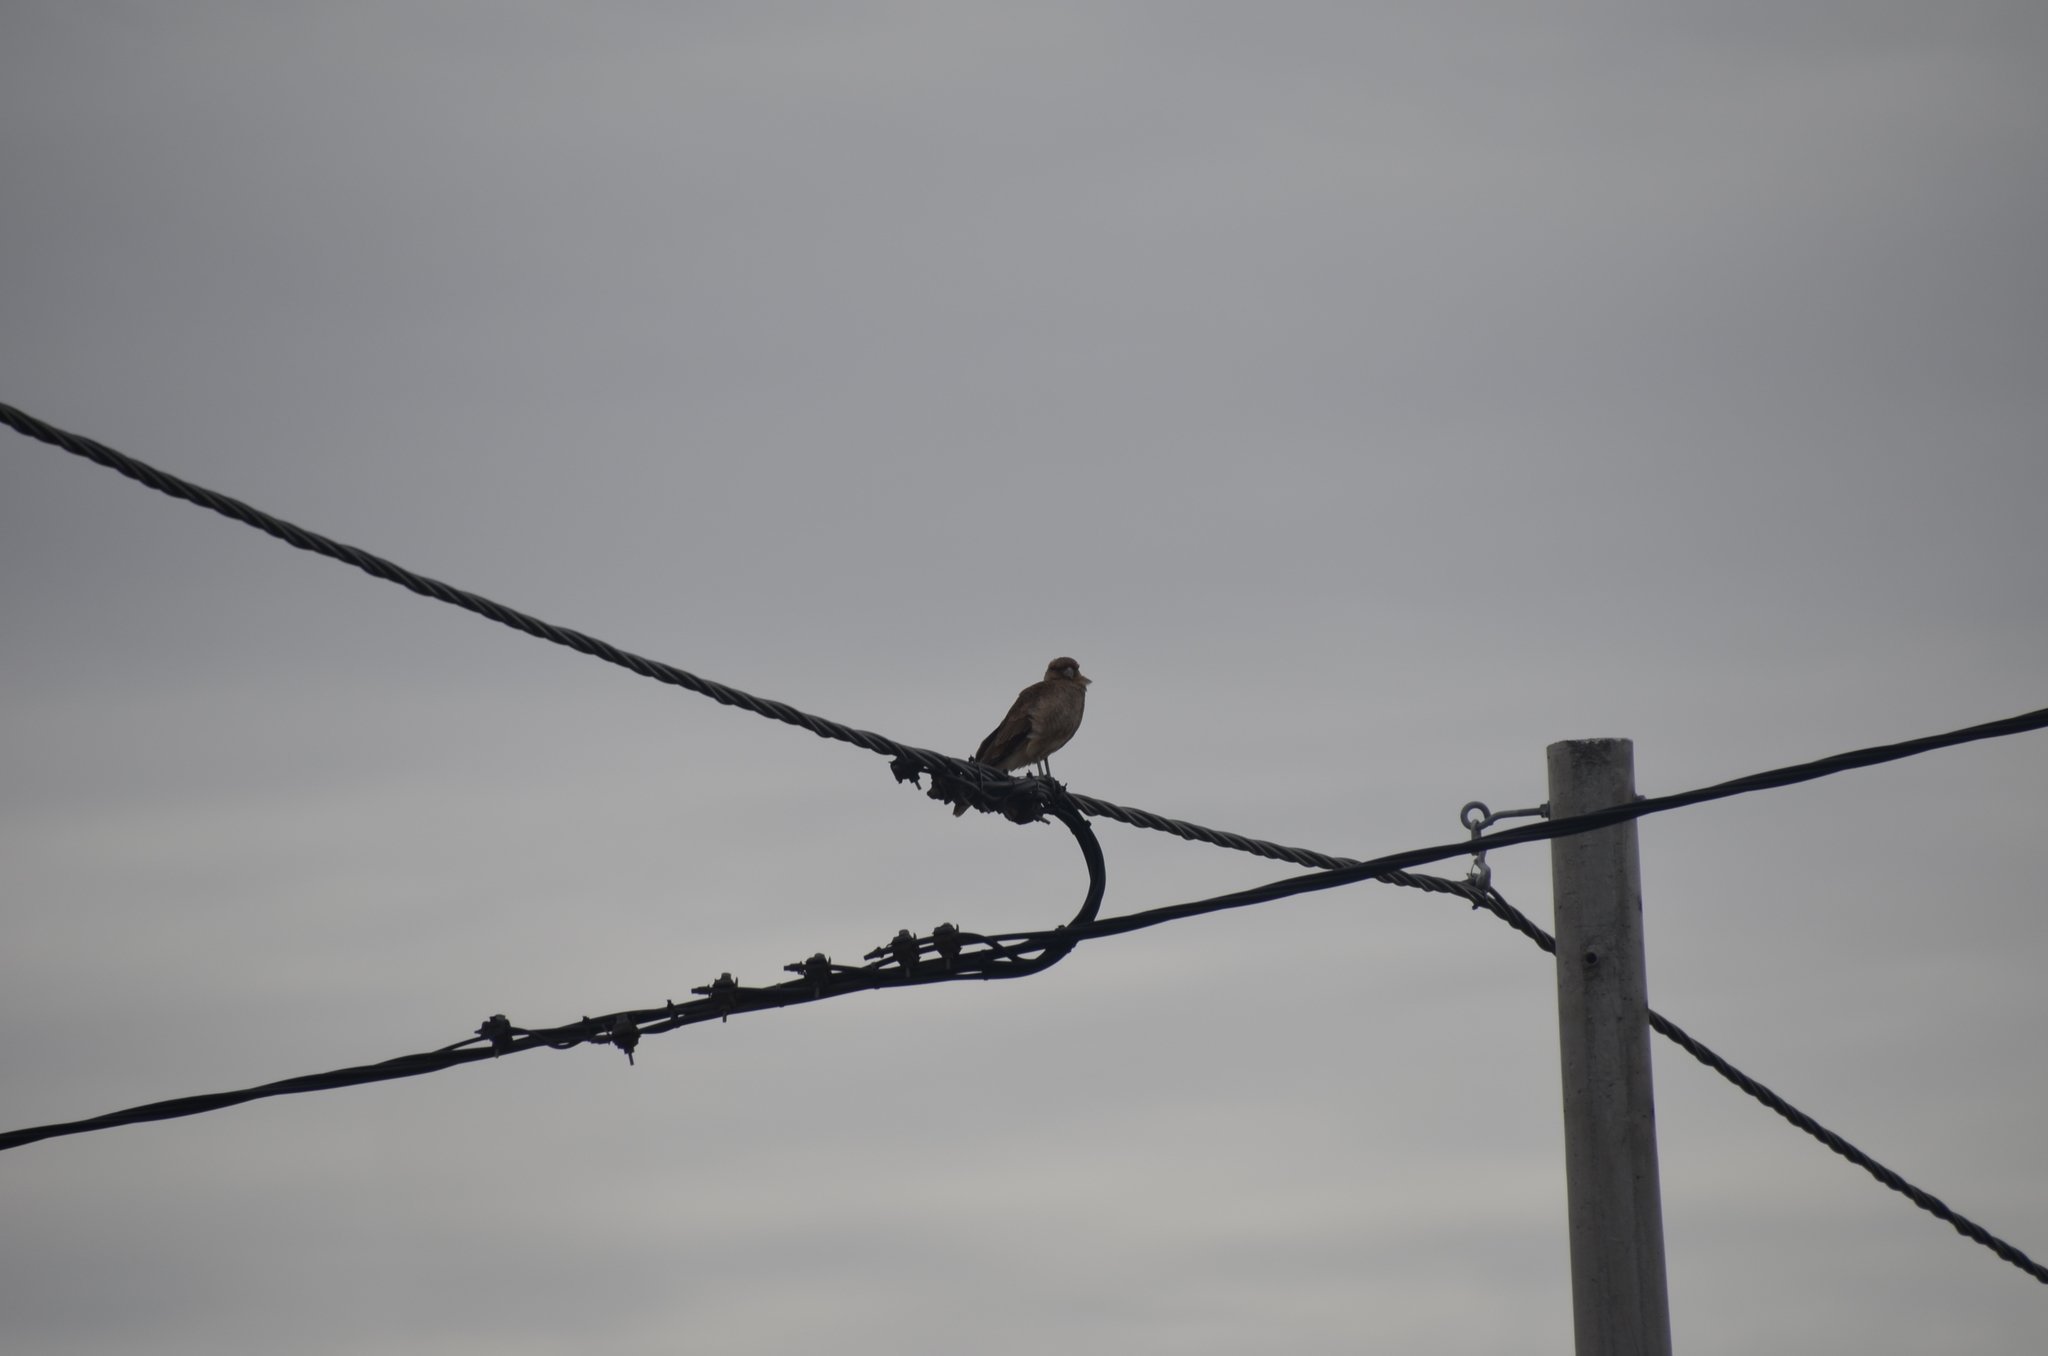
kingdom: Animalia
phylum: Chordata
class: Aves
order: Falconiformes
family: Falconidae
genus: Daptrius
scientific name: Daptrius
